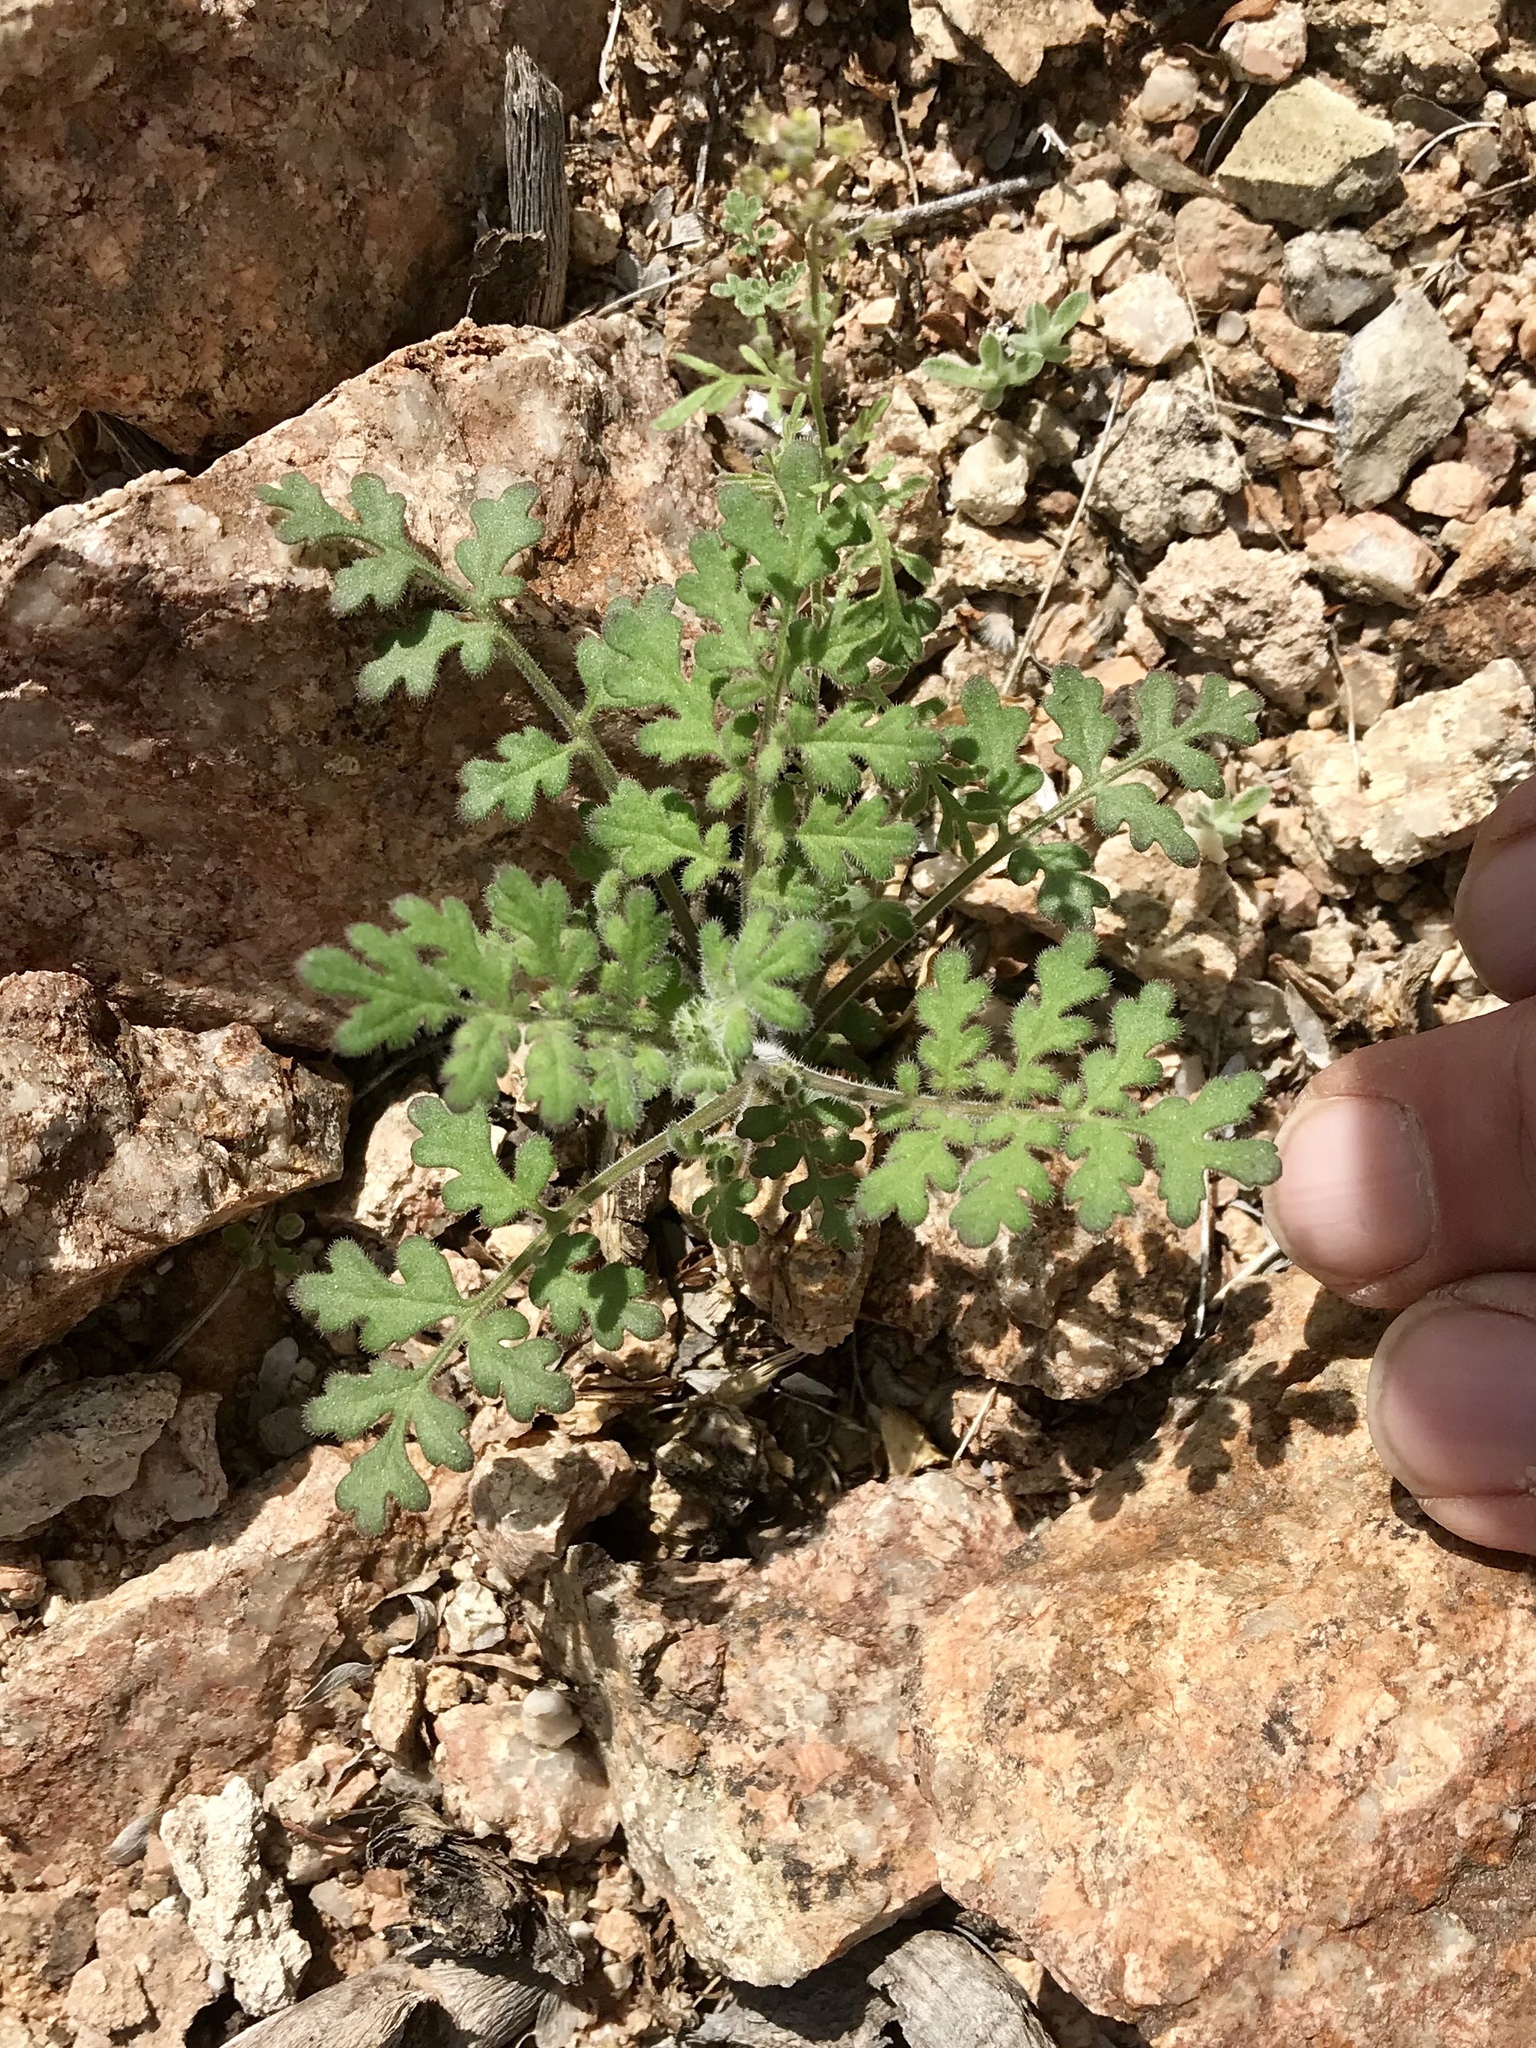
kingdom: Plantae
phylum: Tracheophyta
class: Magnoliopsida
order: Boraginales
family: Hydrophyllaceae
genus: Phacelia
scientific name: Phacelia distans
